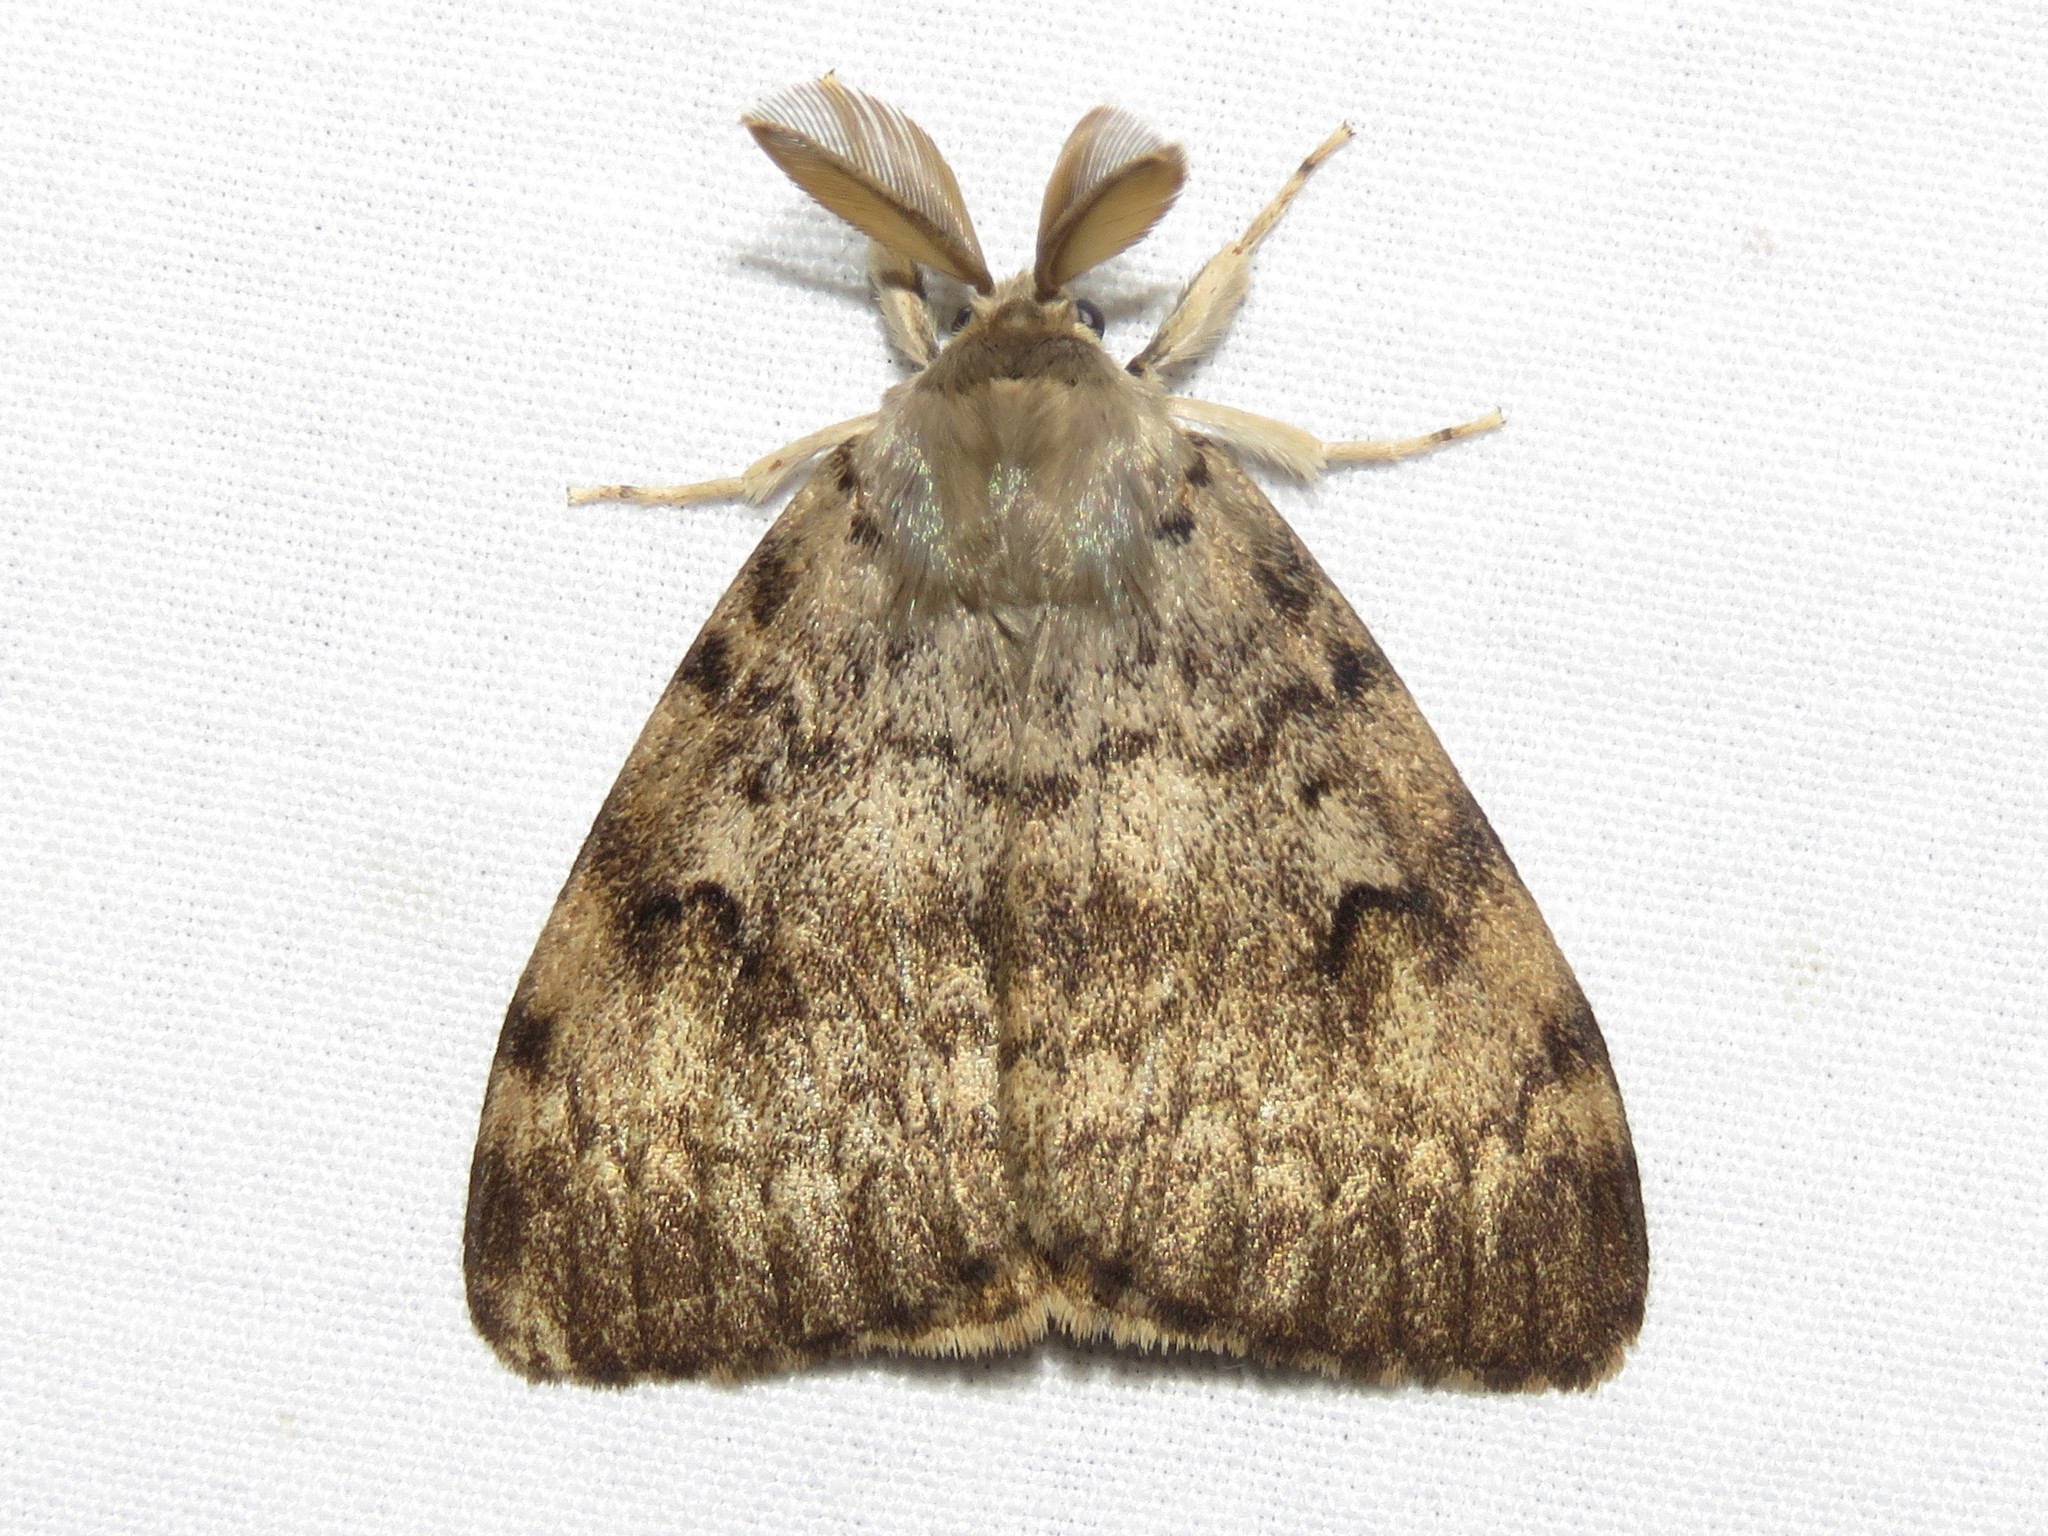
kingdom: Animalia
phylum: Arthropoda
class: Insecta
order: Lepidoptera
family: Erebidae
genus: Lymantria
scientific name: Lymantria dispar
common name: Gypsy moth
